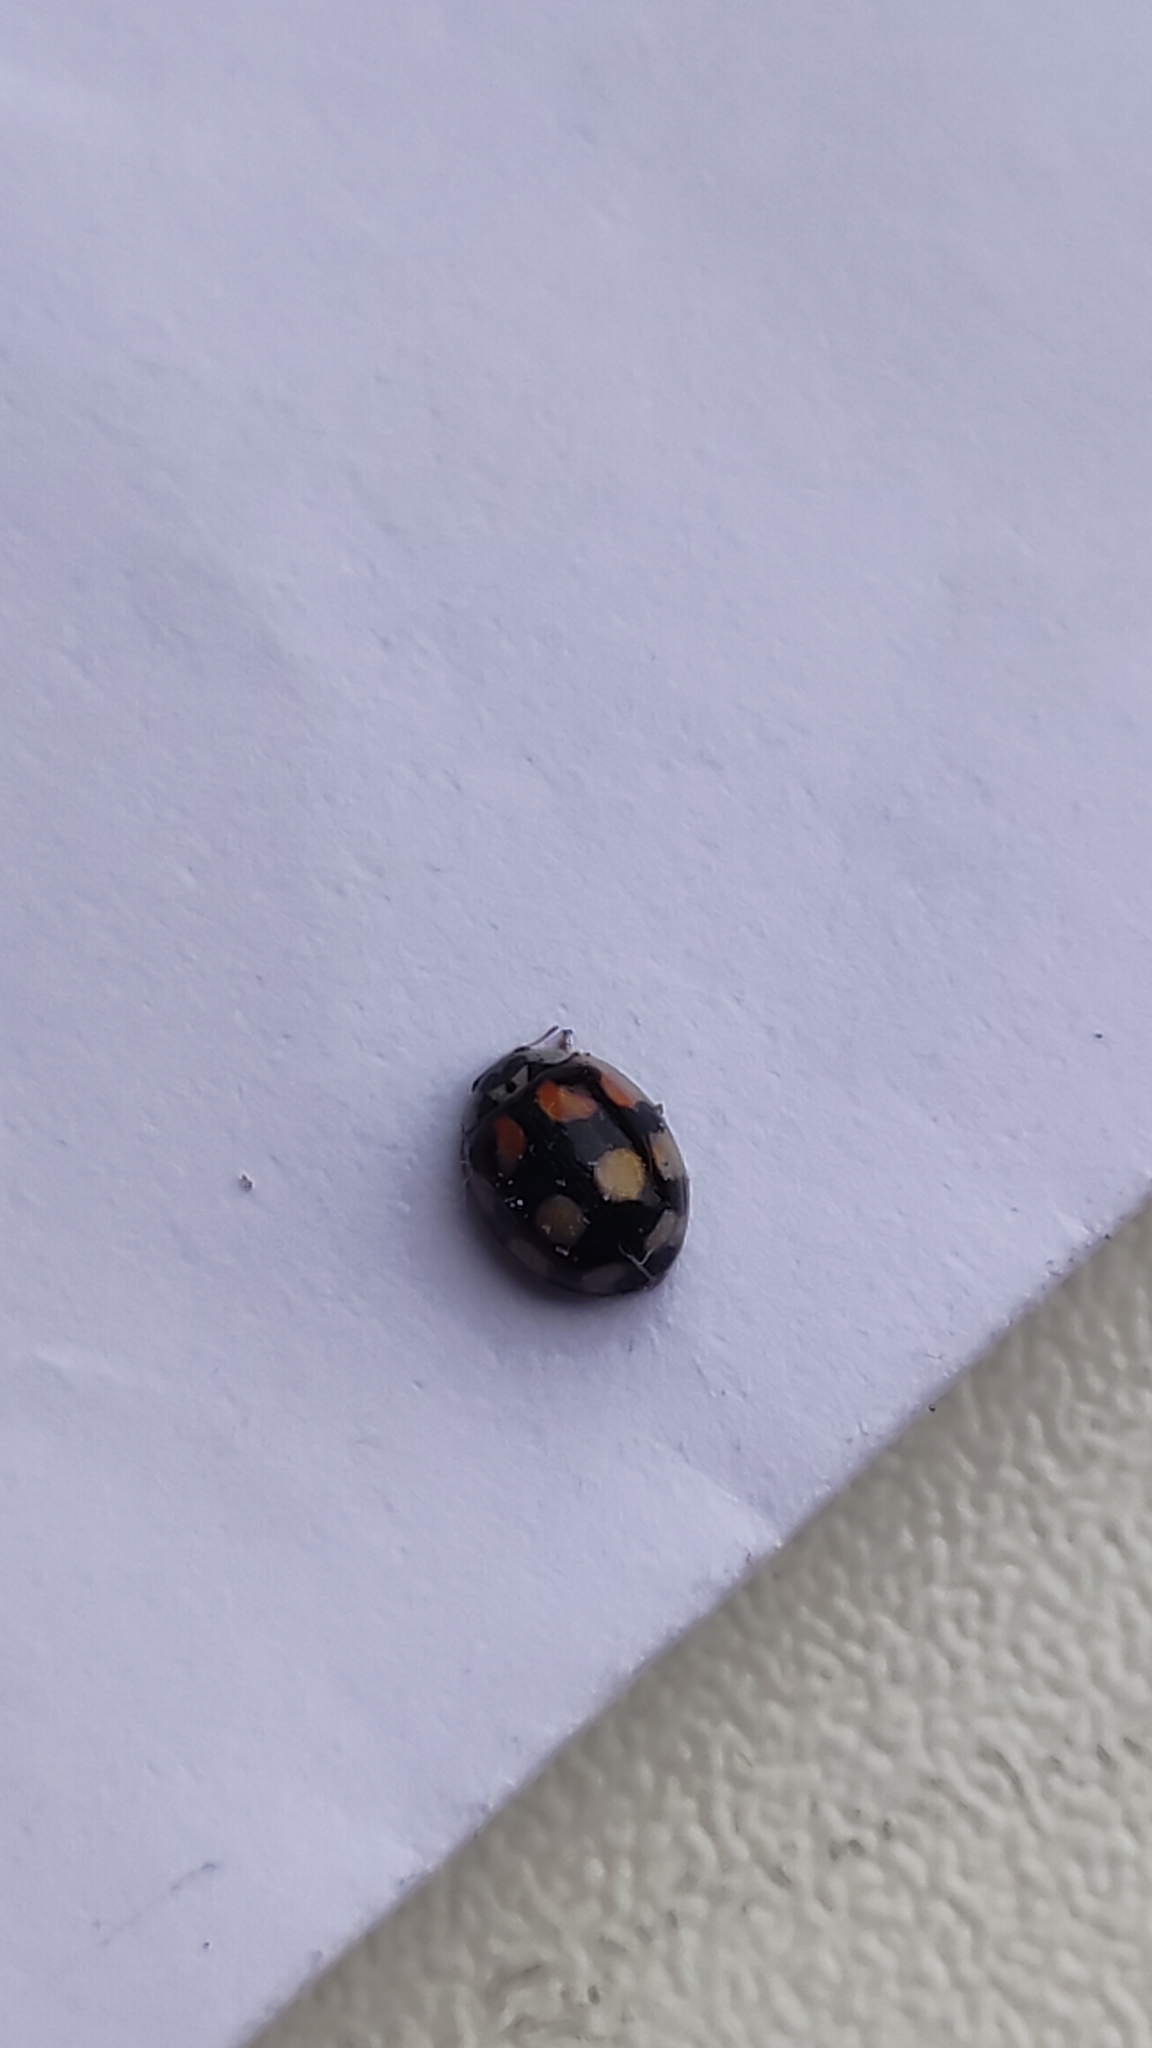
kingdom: Animalia
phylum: Arthropoda
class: Insecta
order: Coleoptera
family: Coccinellidae
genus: Adalia
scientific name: Adalia decempunctata
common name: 10-spot ladybird
